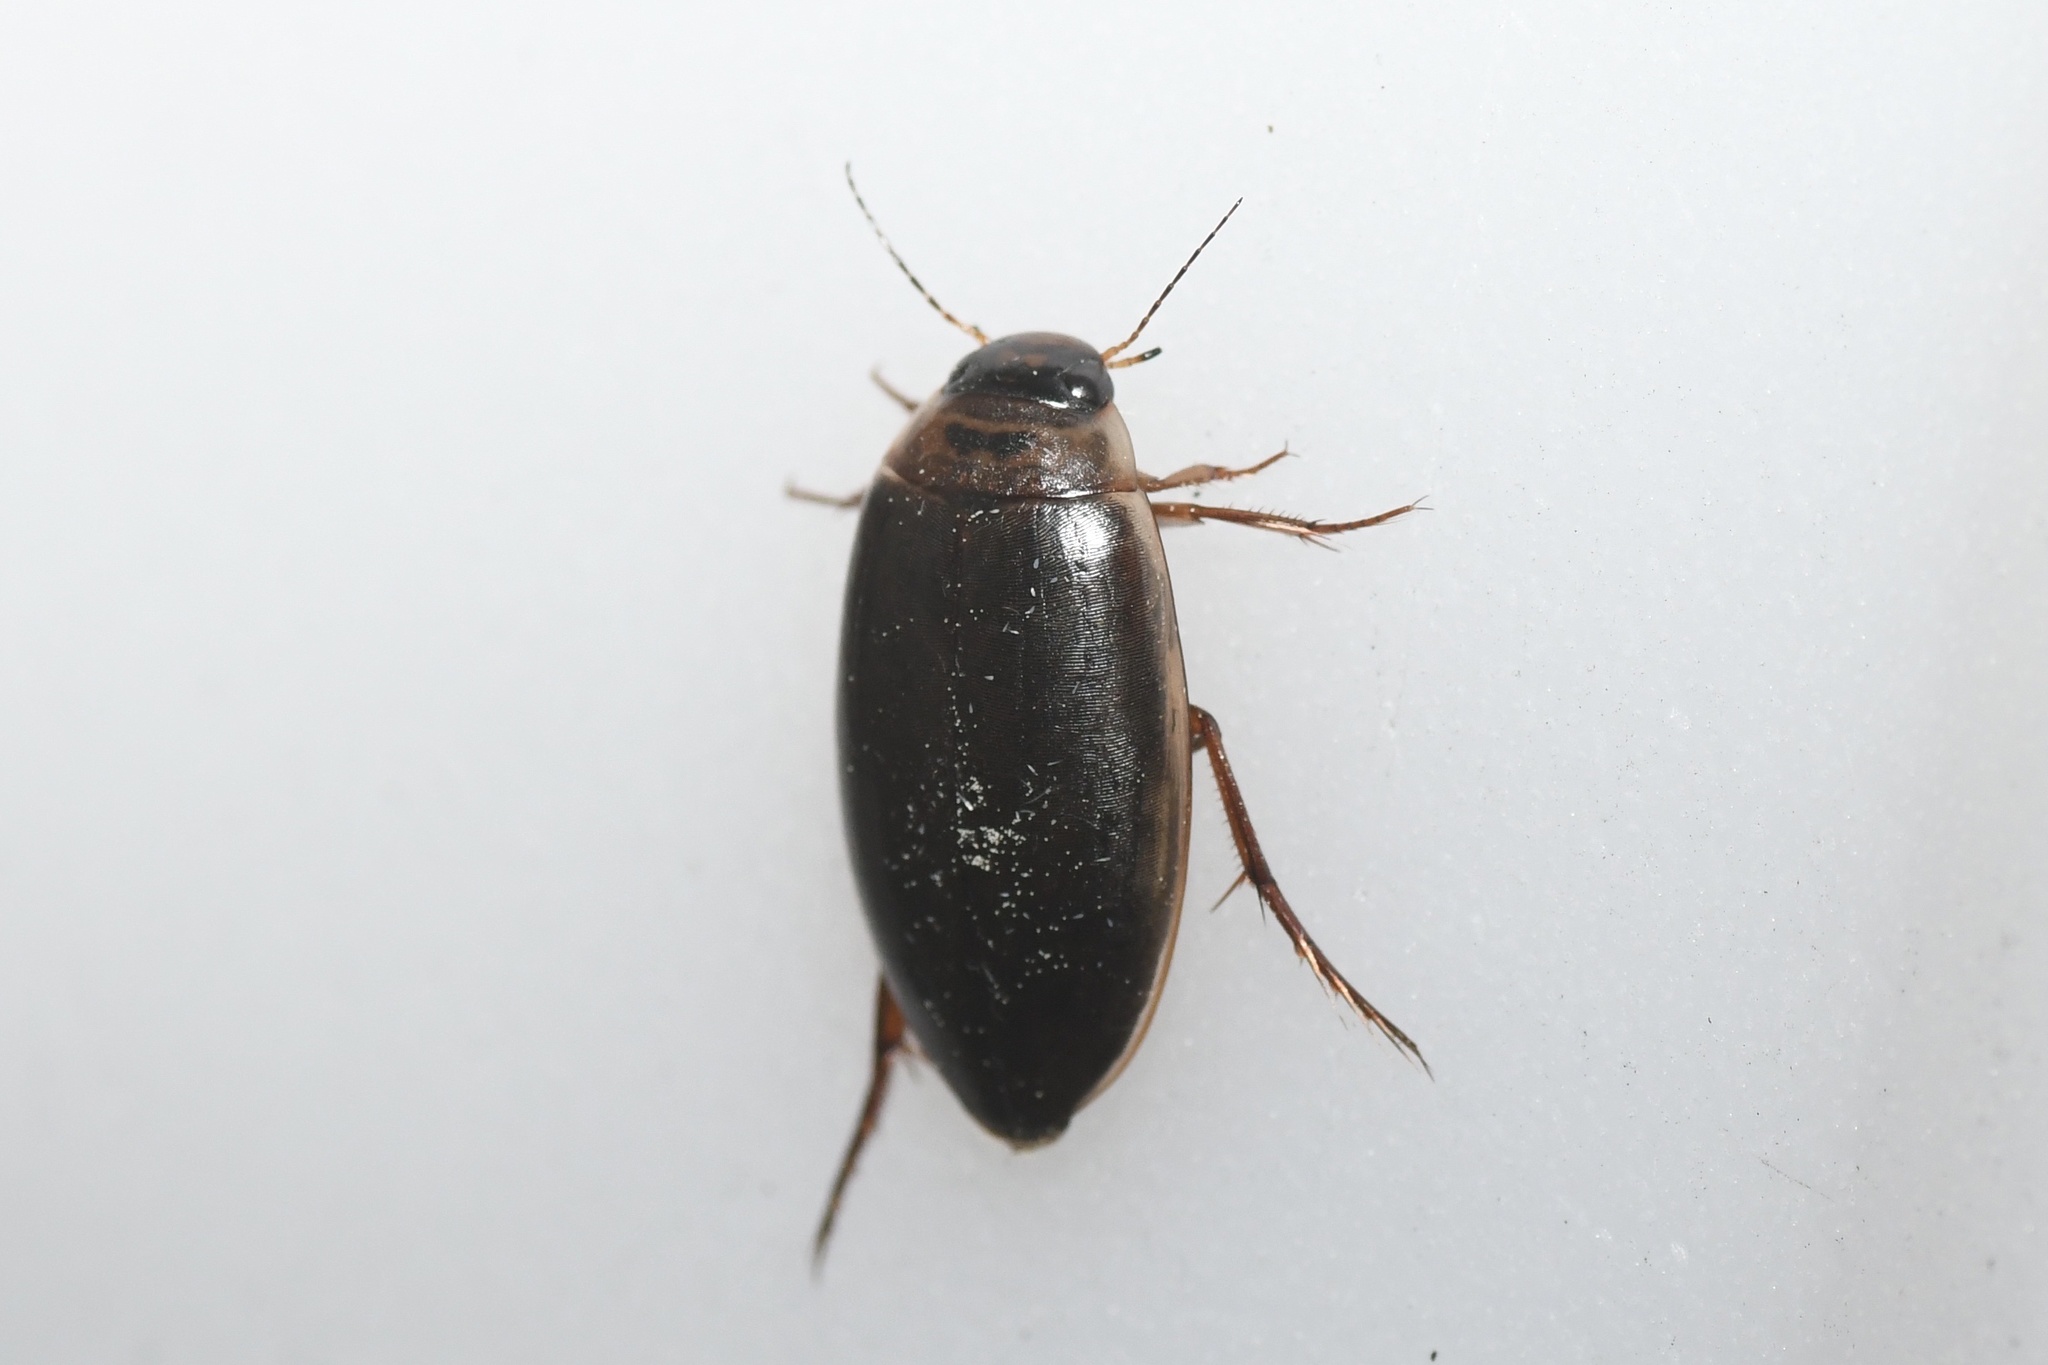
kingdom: Animalia
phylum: Arthropoda
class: Insecta
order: Coleoptera
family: Dytiscidae
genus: Colymbetes
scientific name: Colymbetes sculptilis
